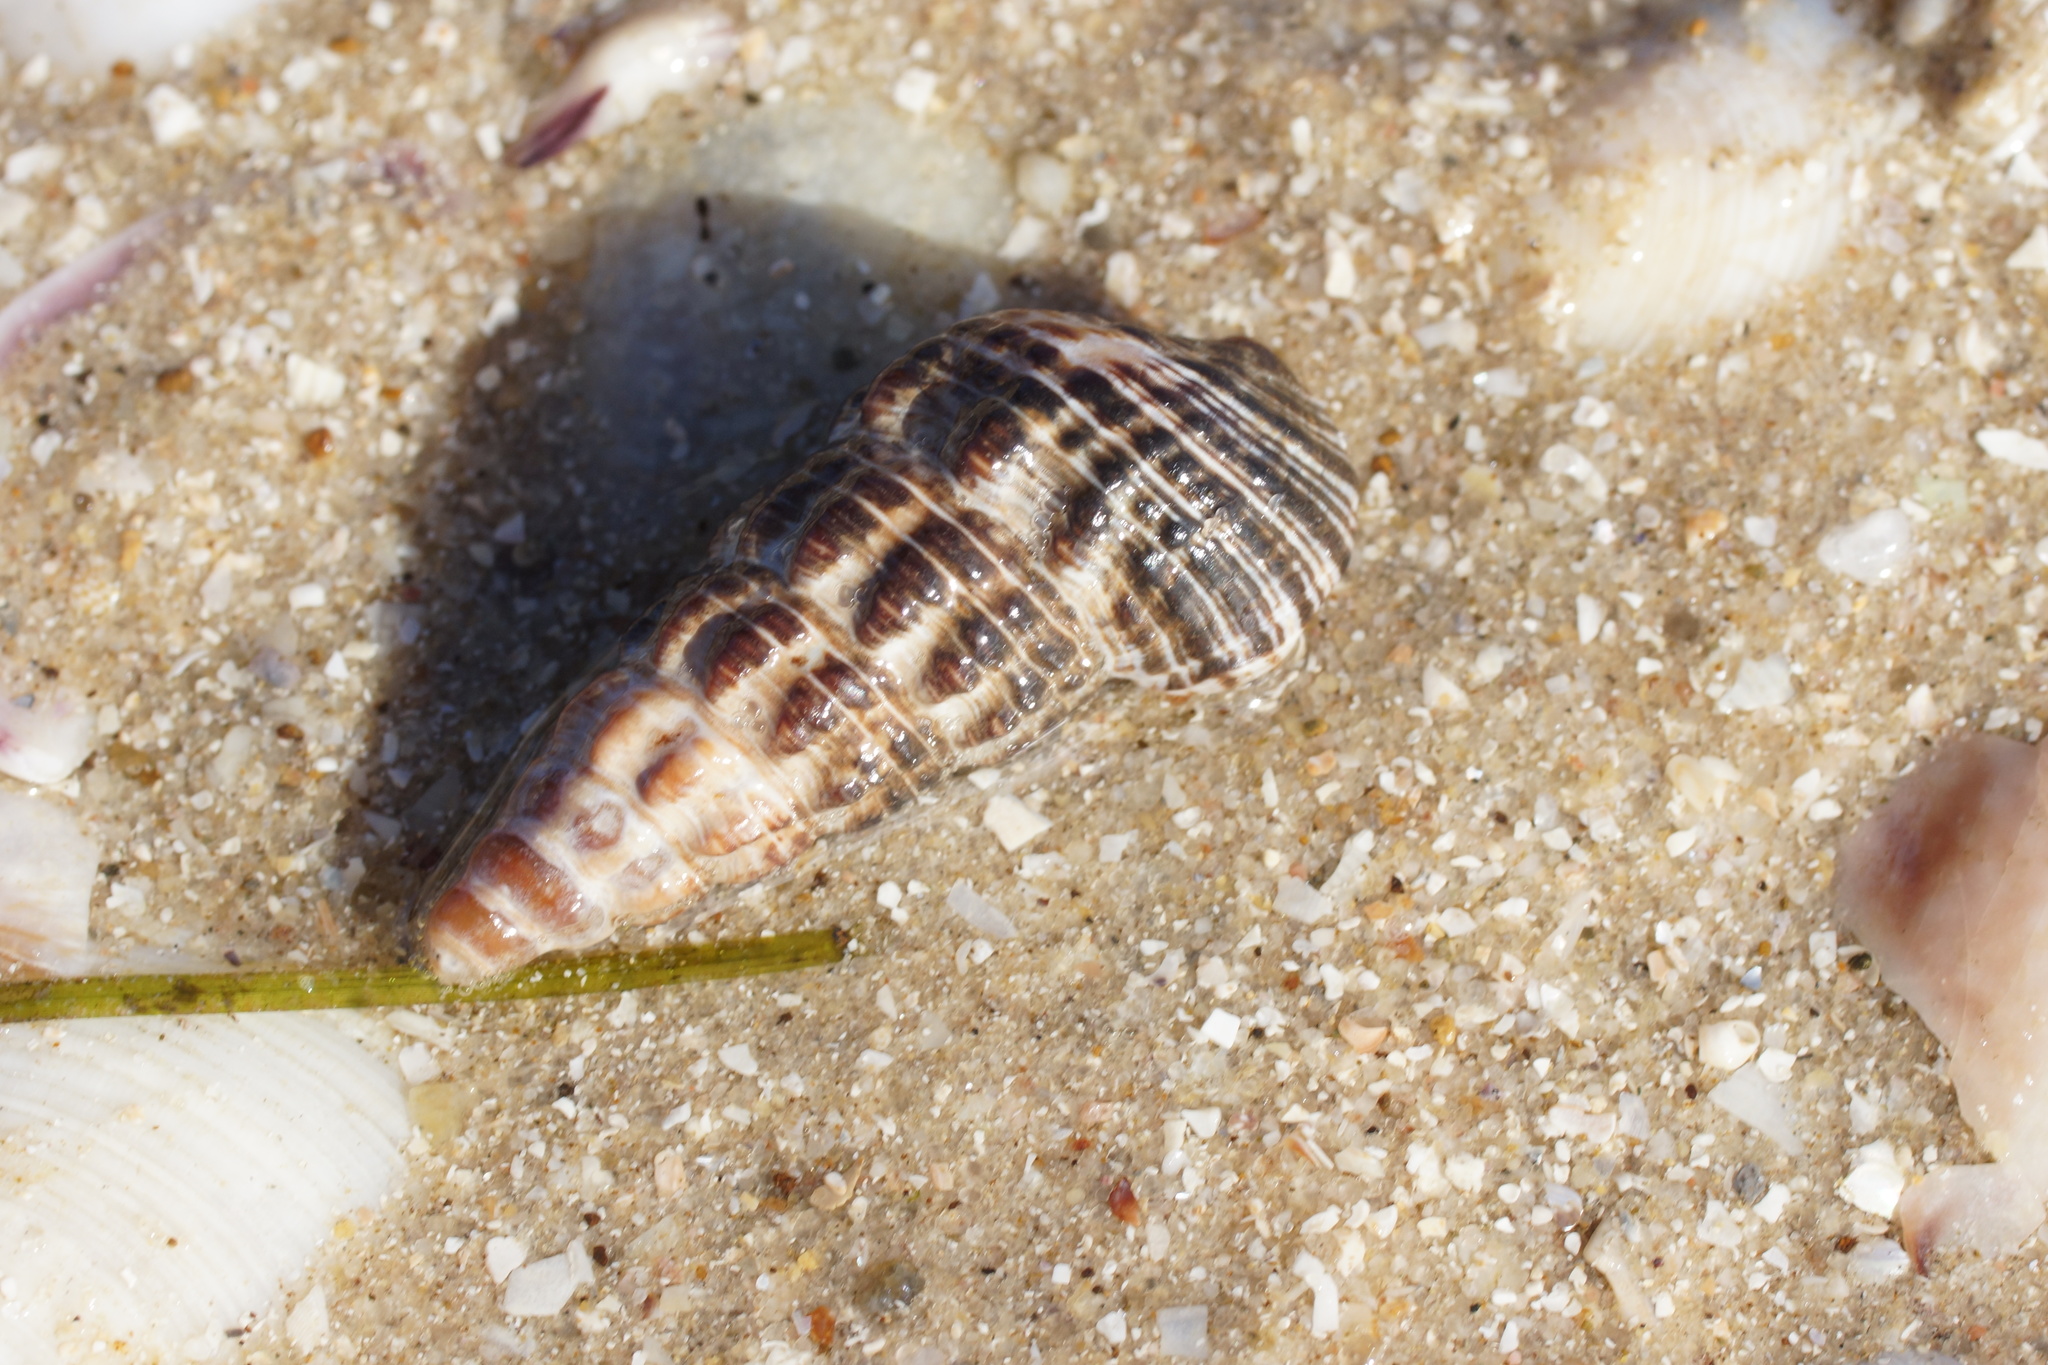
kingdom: Animalia
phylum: Mollusca
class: Gastropoda
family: Batillariidae
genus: Batillaria
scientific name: Batillaria australis
